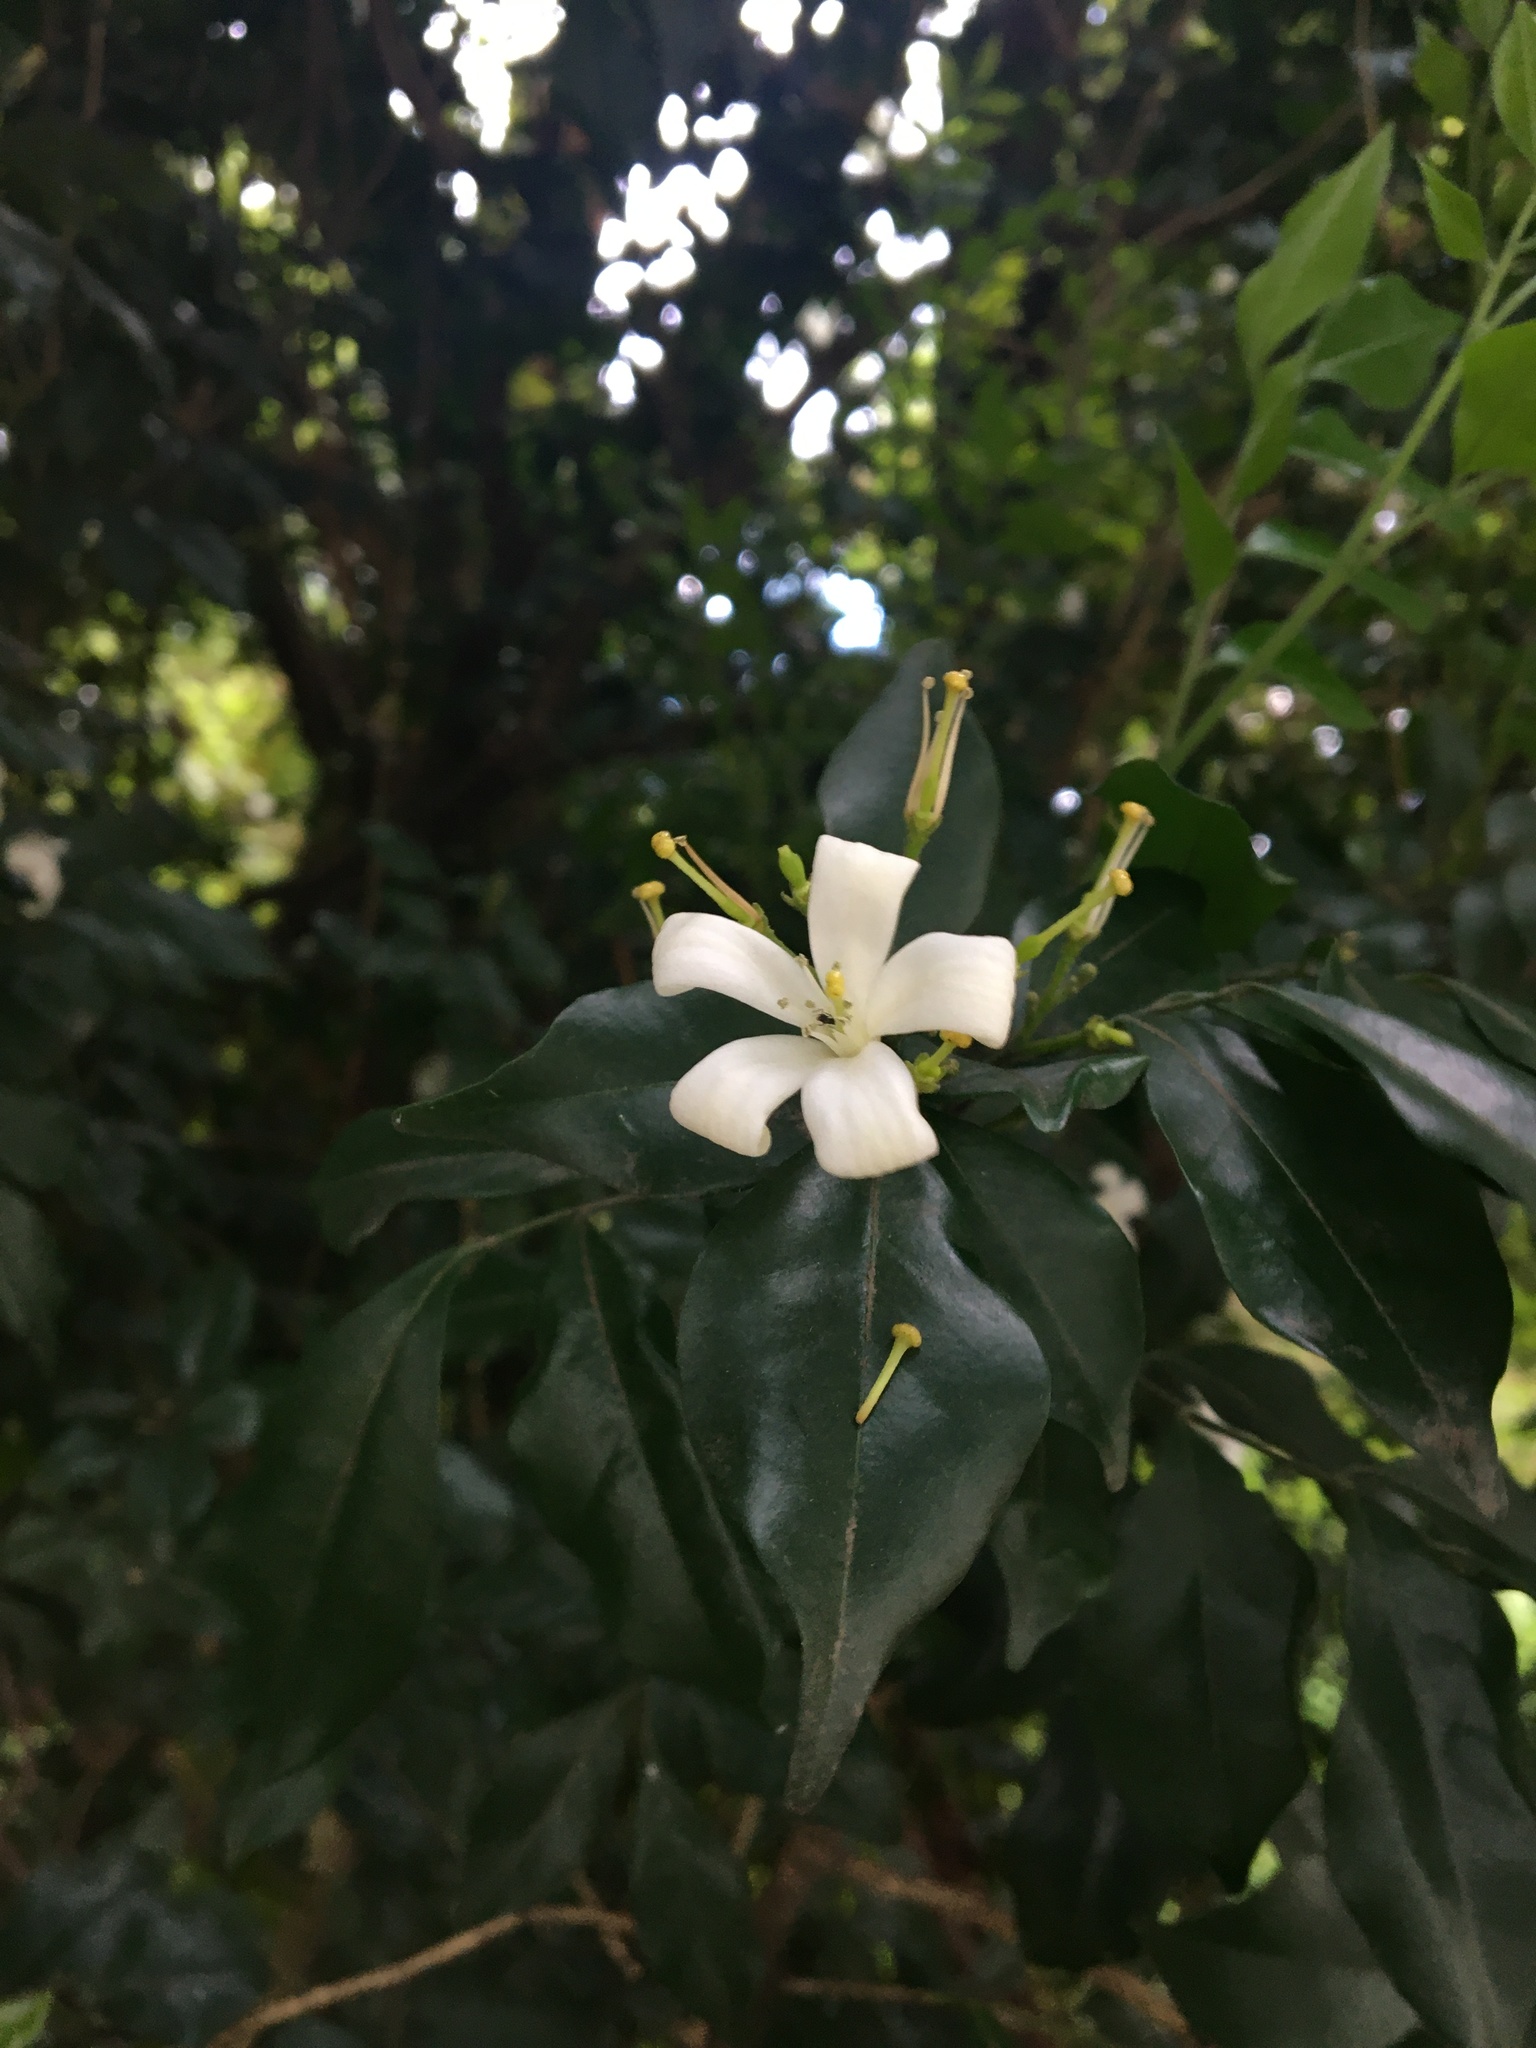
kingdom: Plantae
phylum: Tracheophyta
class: Magnoliopsida
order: Sapindales
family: Rutaceae
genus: Murraya
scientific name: Murraya paniculata
